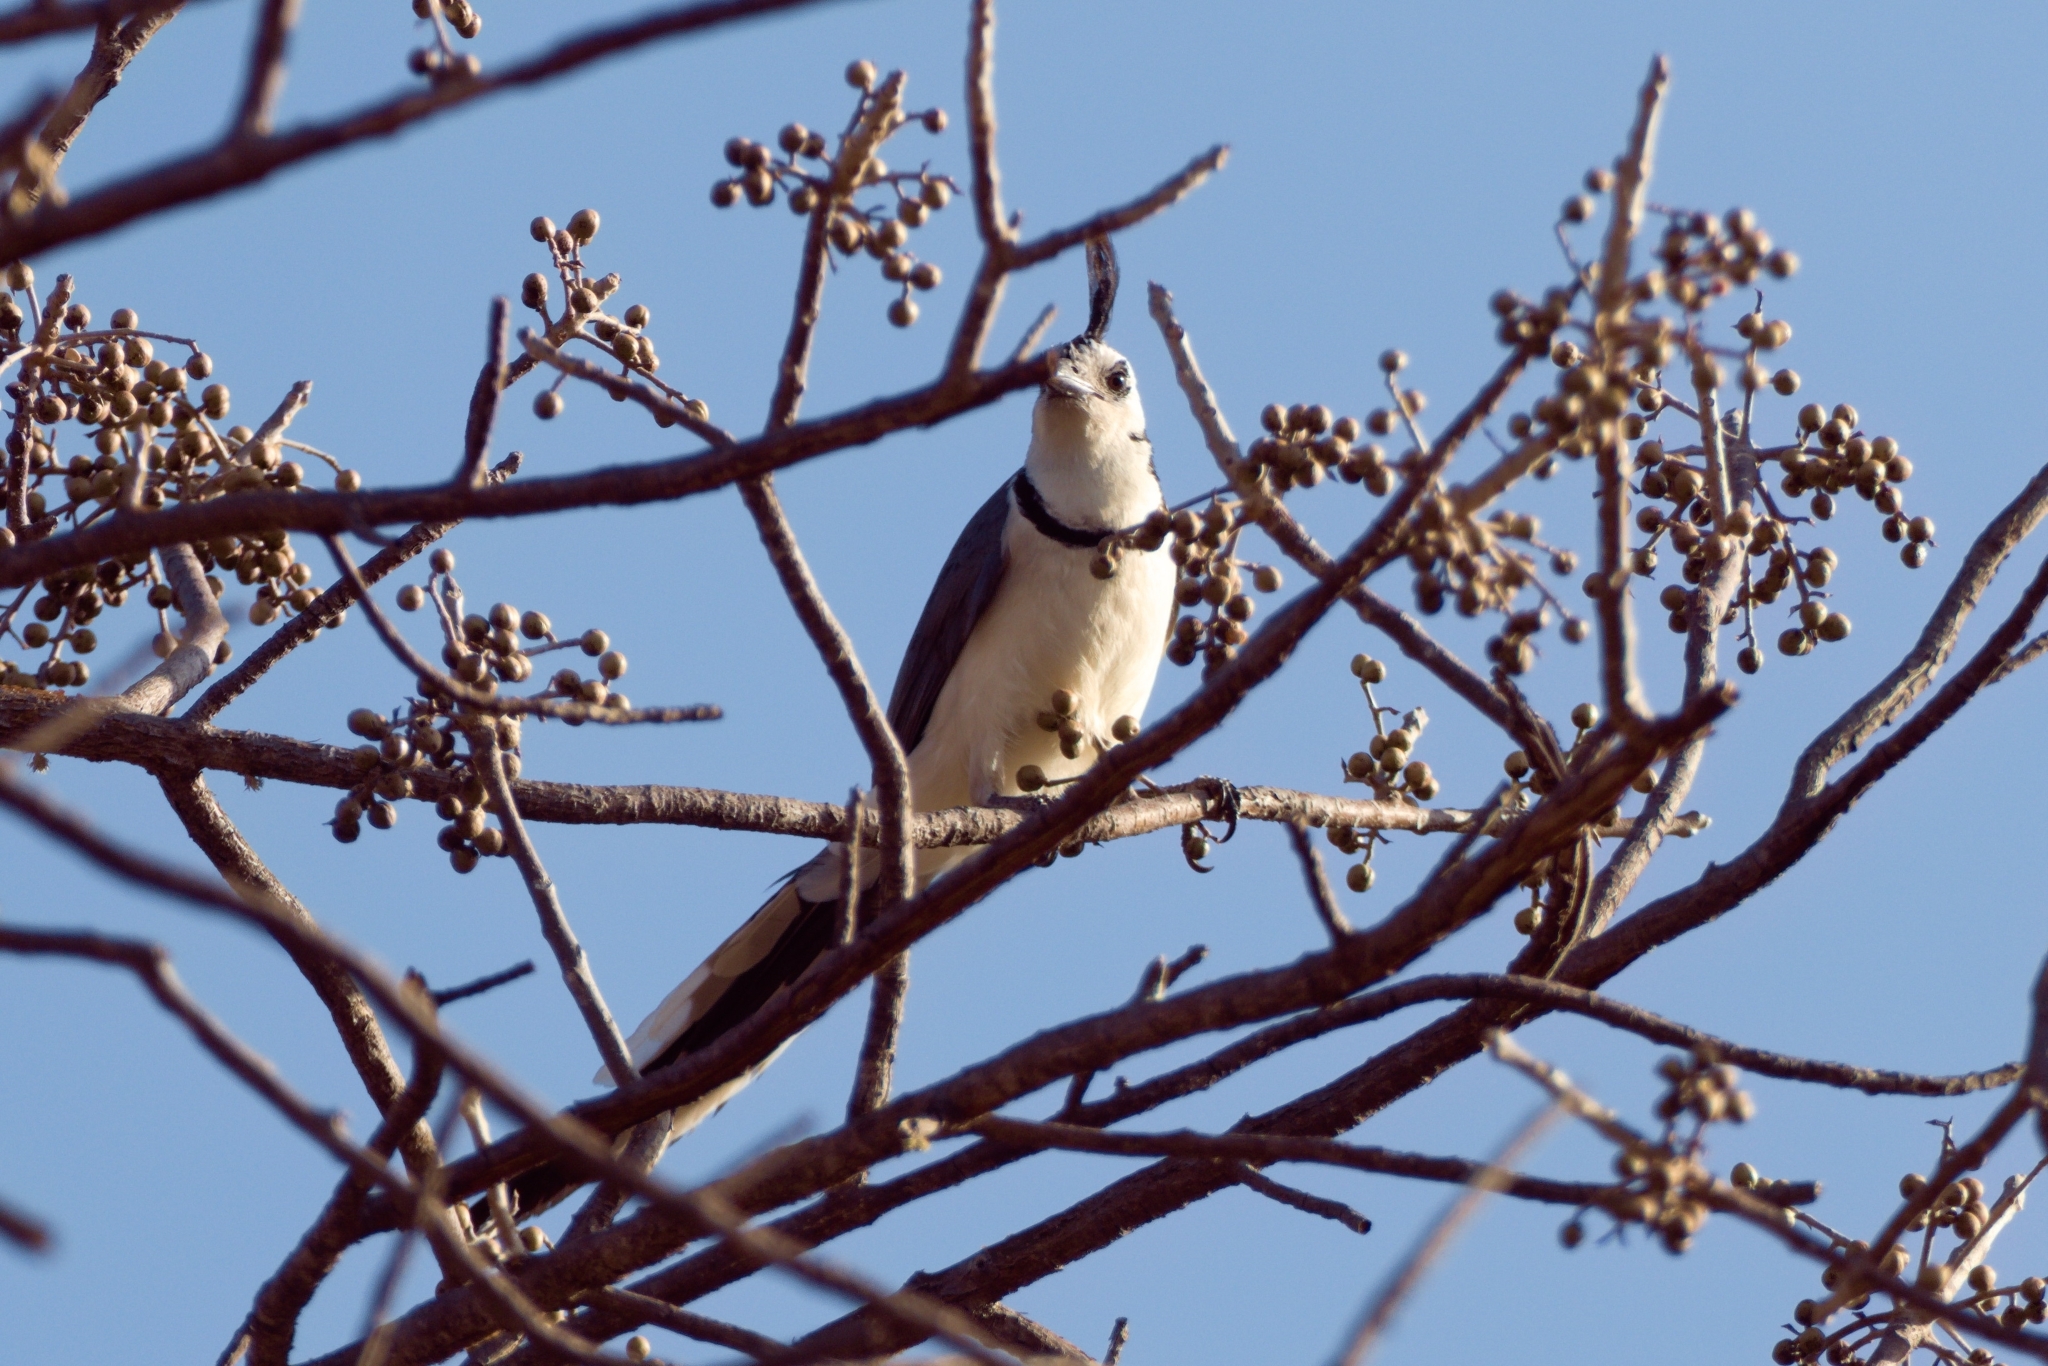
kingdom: Animalia
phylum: Chordata
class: Aves
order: Passeriformes
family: Corvidae
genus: Calocitta
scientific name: Calocitta formosa
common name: White-throated magpie-jay
